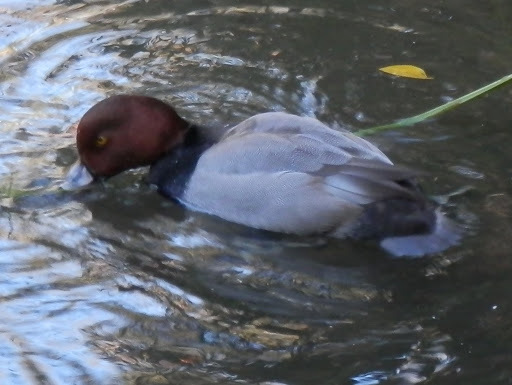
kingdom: Animalia
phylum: Chordata
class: Aves
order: Anseriformes
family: Anatidae
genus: Aythya
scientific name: Aythya americana
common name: Redhead
